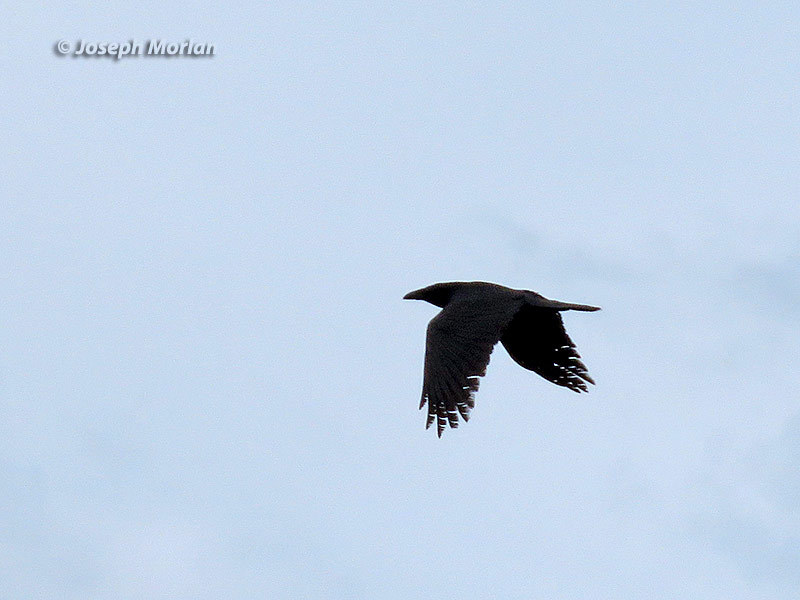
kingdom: Animalia
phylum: Chordata
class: Aves
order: Passeriformes
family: Corvidae
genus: Corvus
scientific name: Corvus corax
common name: Common raven
